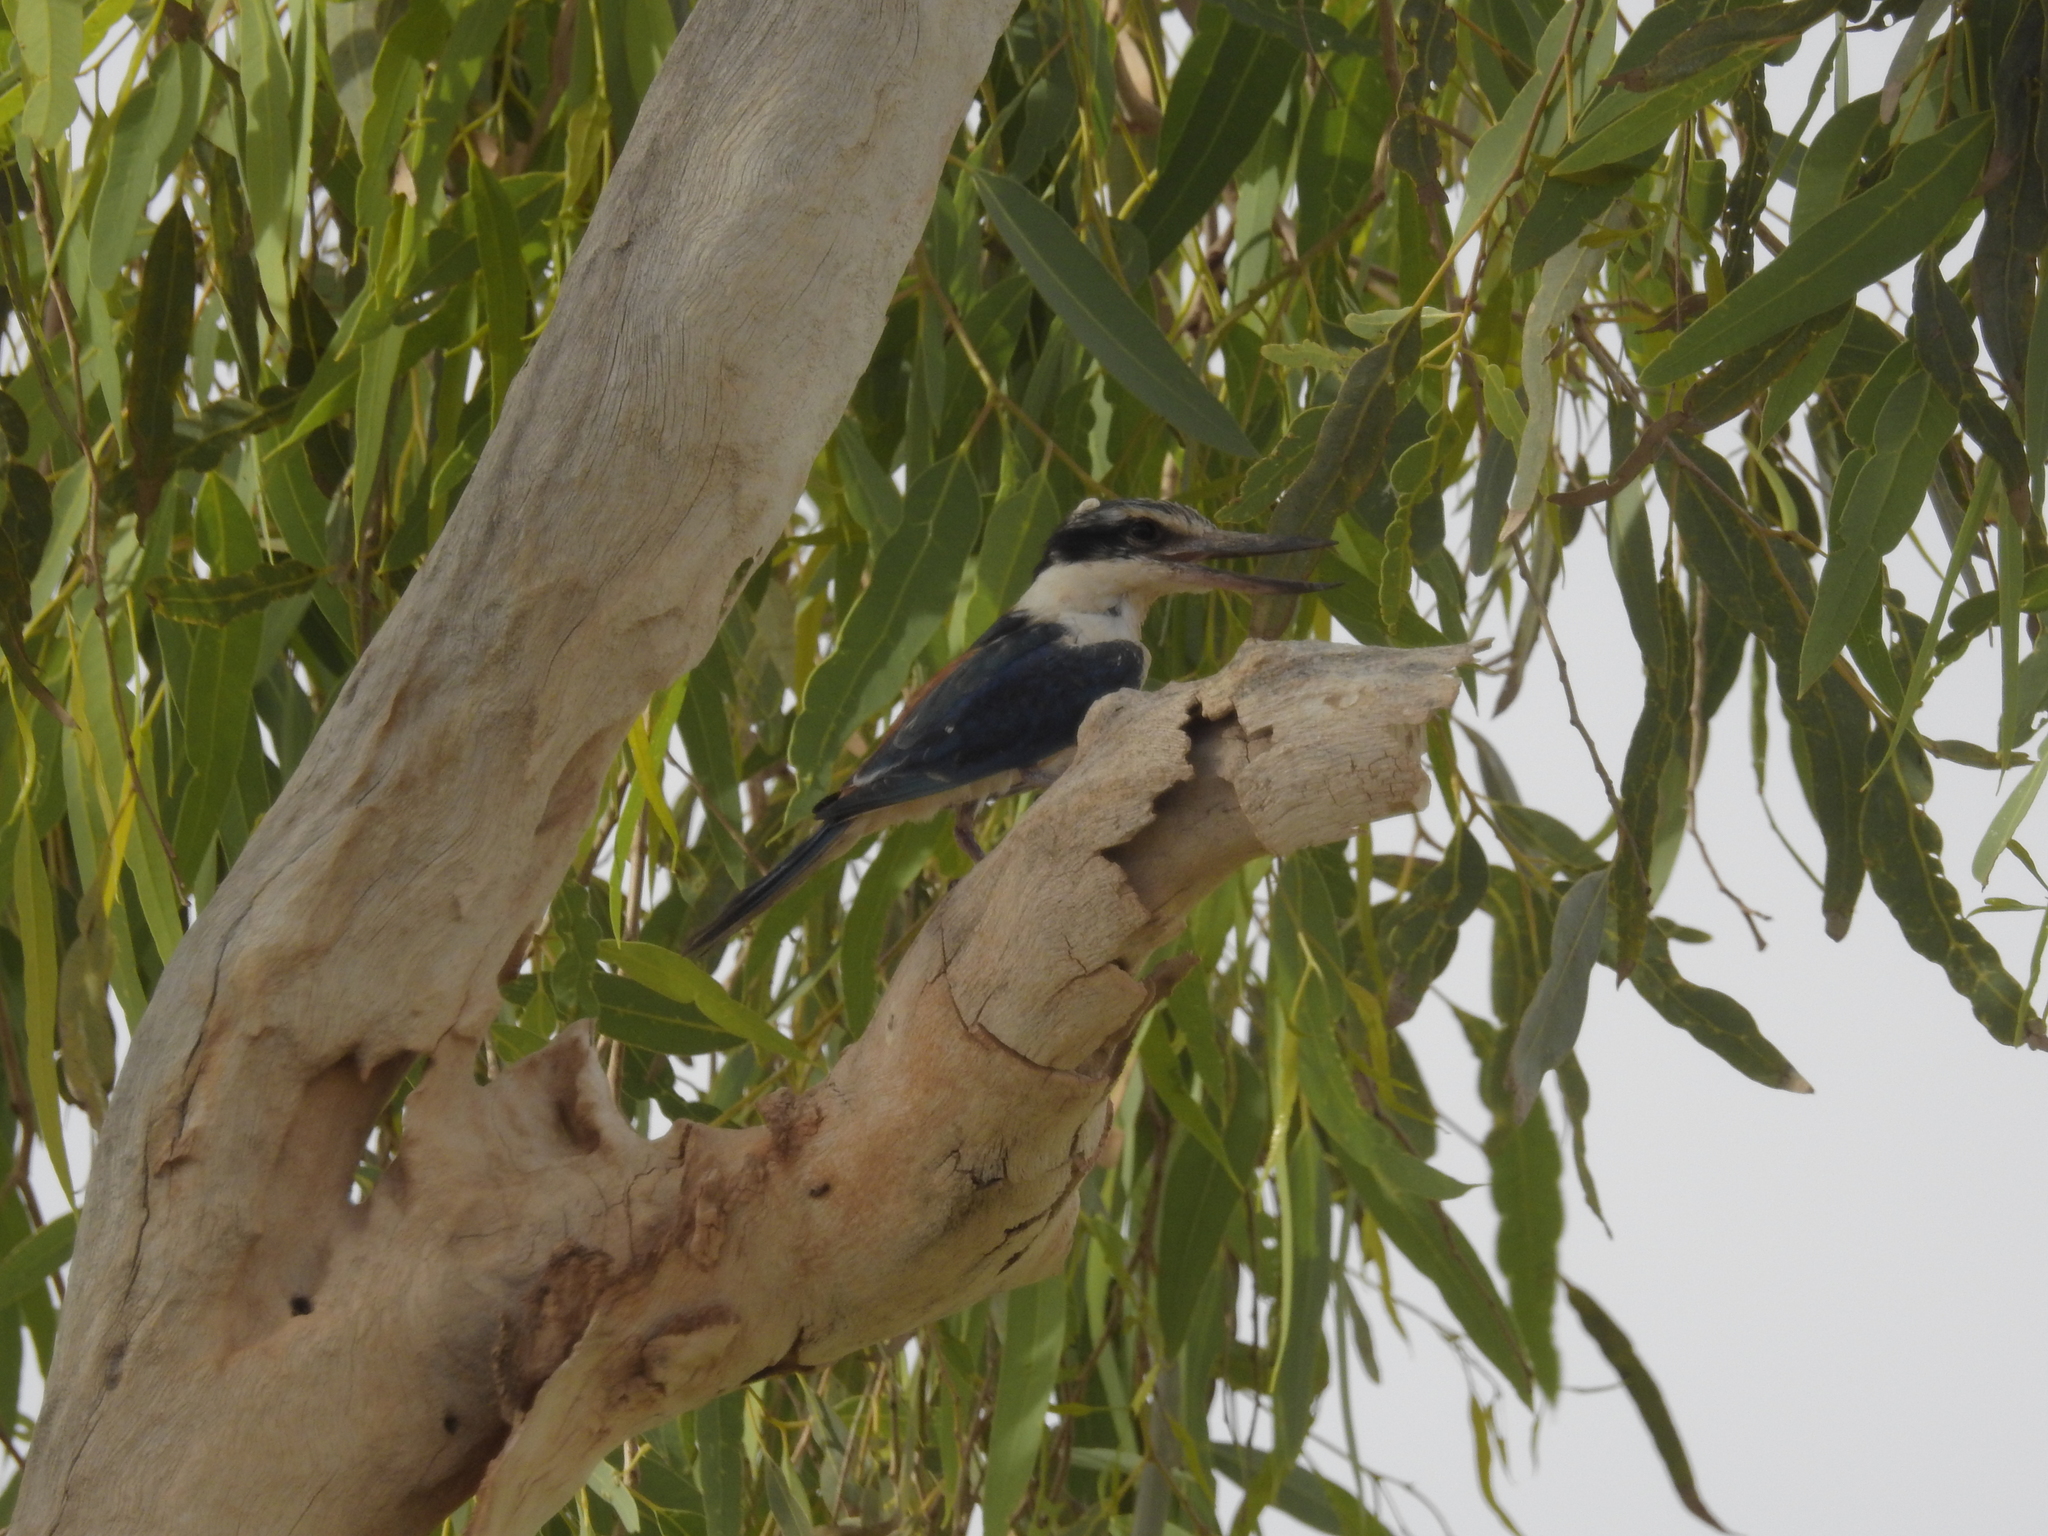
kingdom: Animalia
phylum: Chordata
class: Aves
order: Coraciiformes
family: Alcedinidae
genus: Todiramphus
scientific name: Todiramphus pyrrhopygius
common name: Red-backed kingfisher
